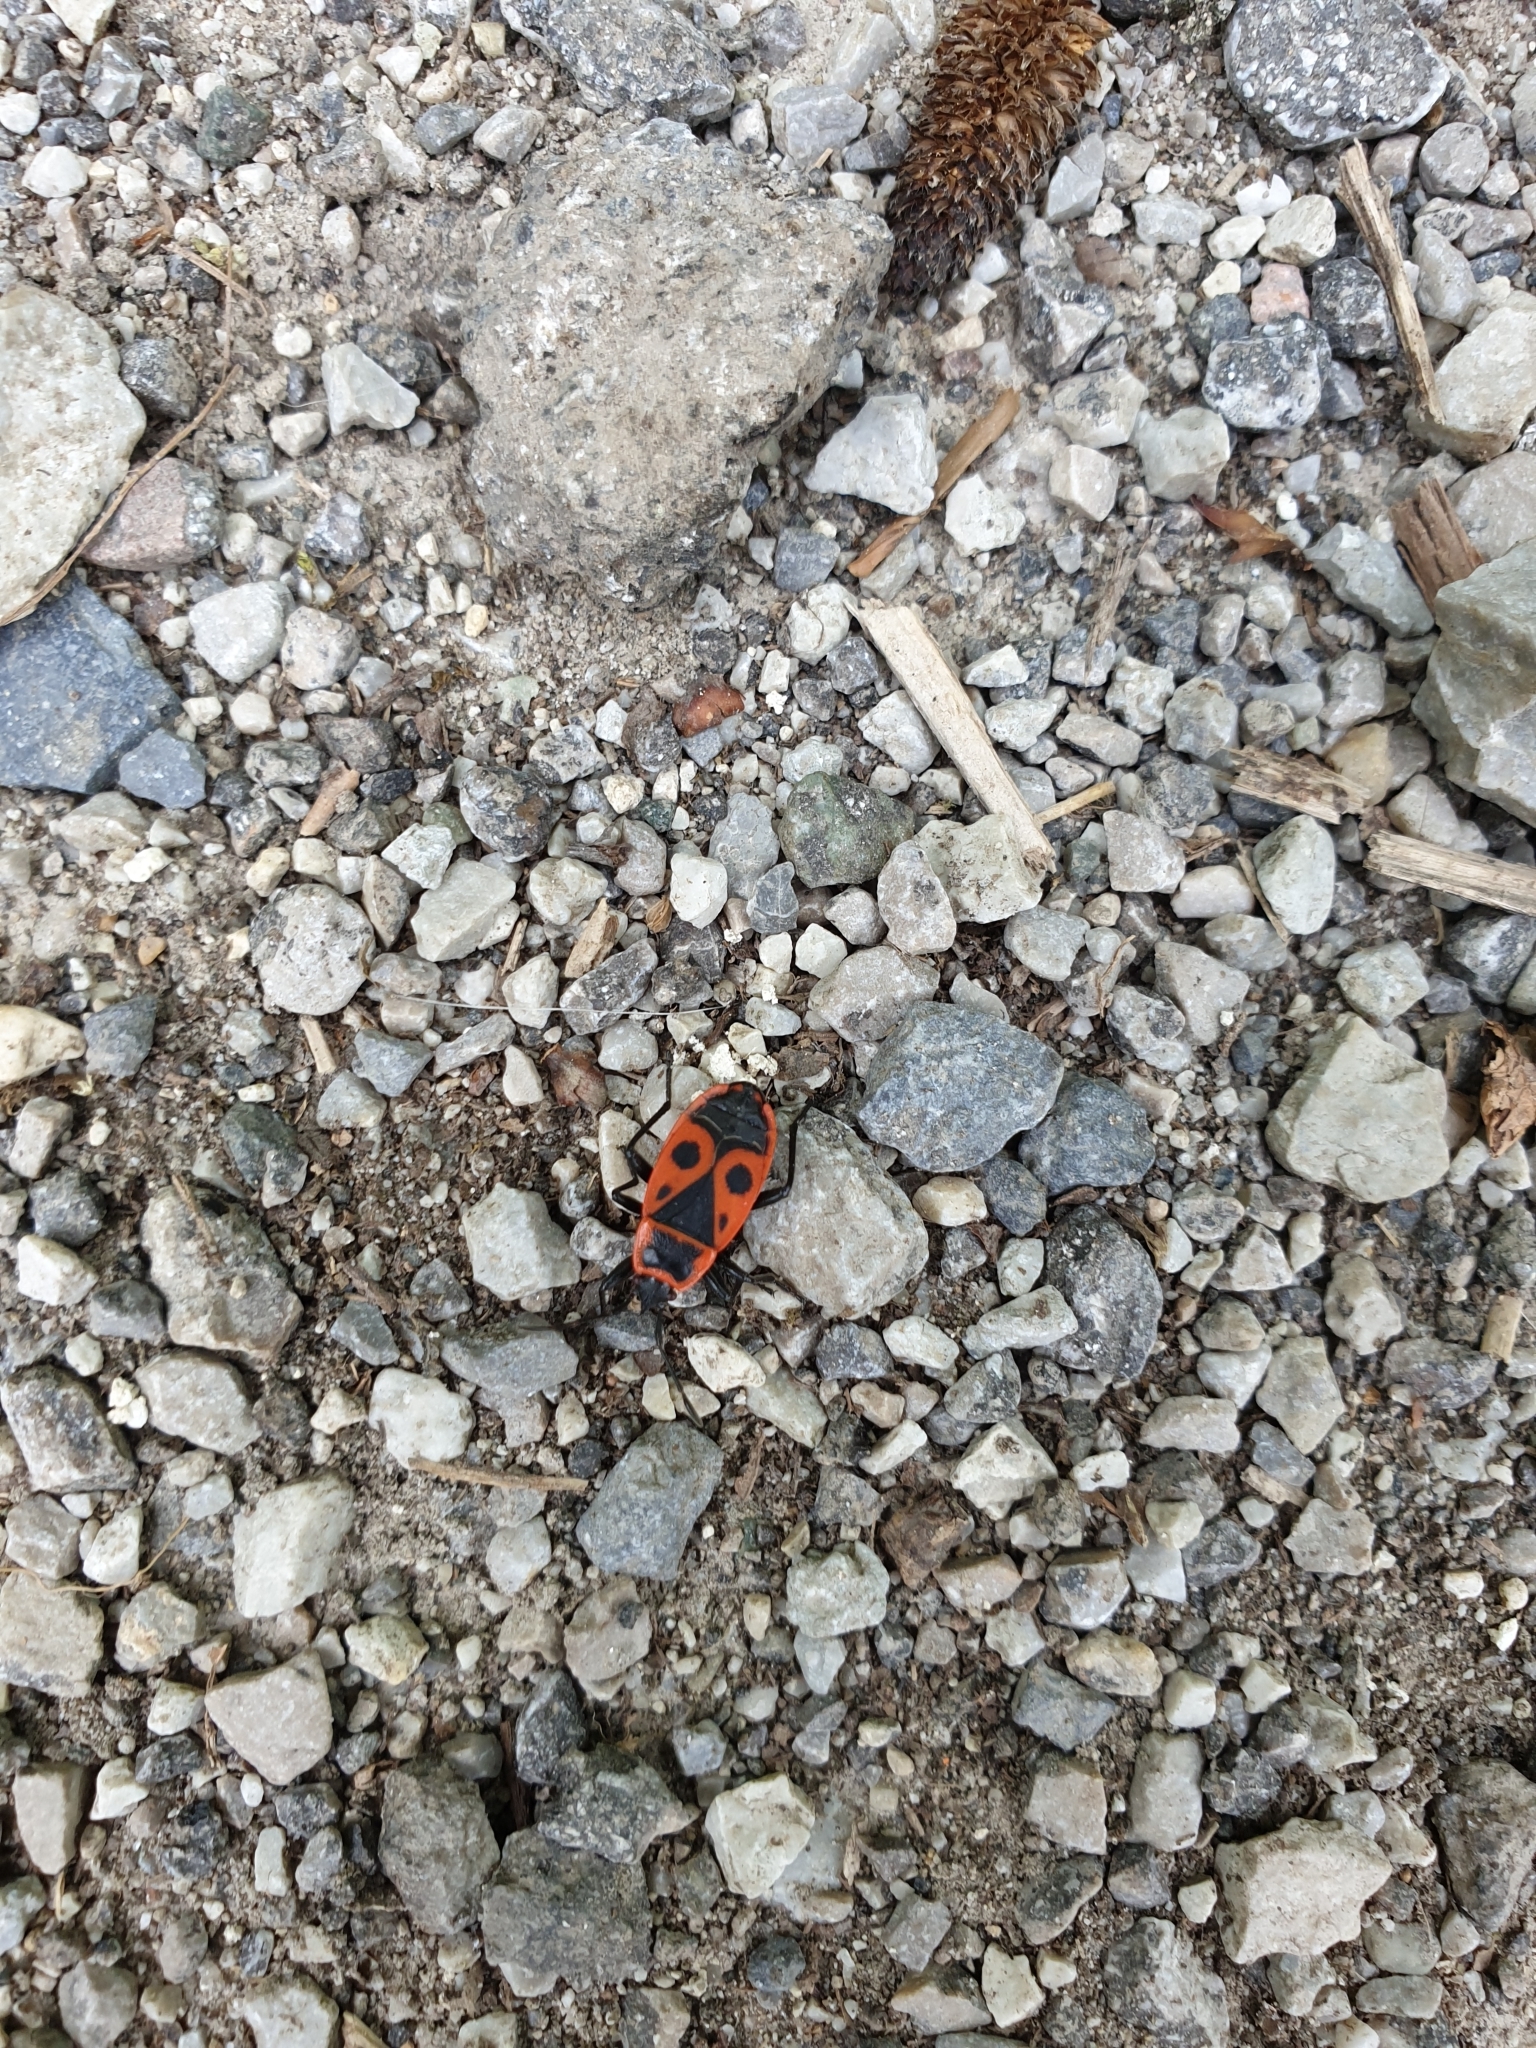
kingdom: Animalia
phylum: Arthropoda
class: Insecta
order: Hemiptera
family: Pyrrhocoridae
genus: Pyrrhocoris
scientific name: Pyrrhocoris apterus
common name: Firebug
